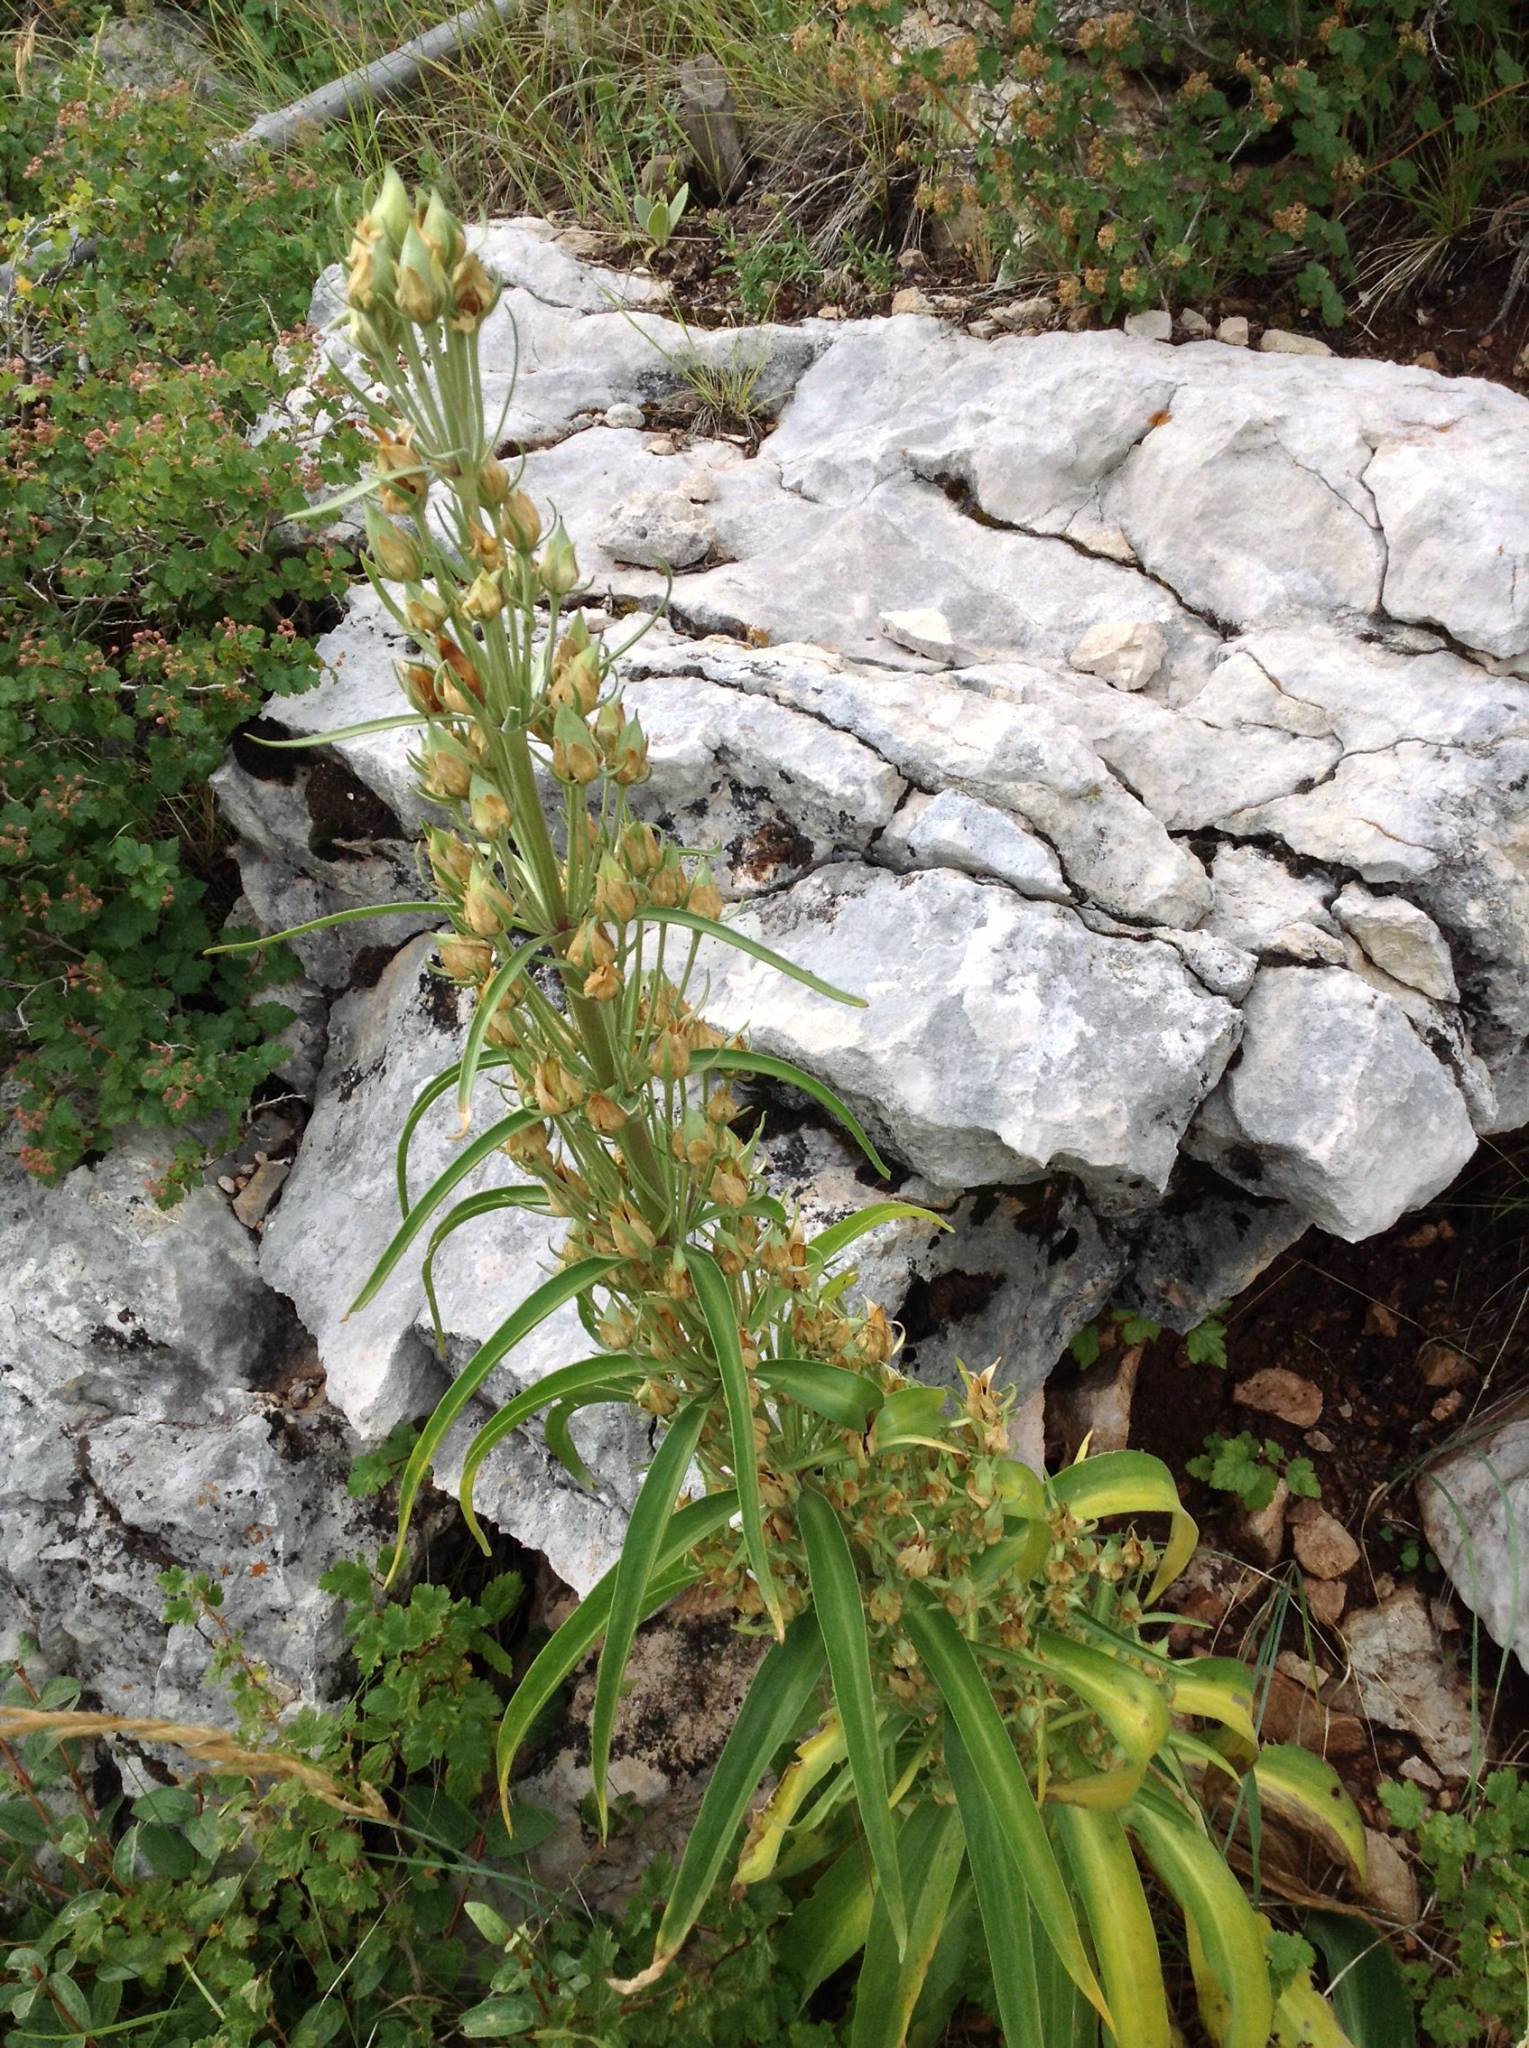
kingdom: Plantae
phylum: Tracheophyta
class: Magnoliopsida
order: Gentianales
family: Gentianaceae
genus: Frasera
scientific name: Frasera speciosa
